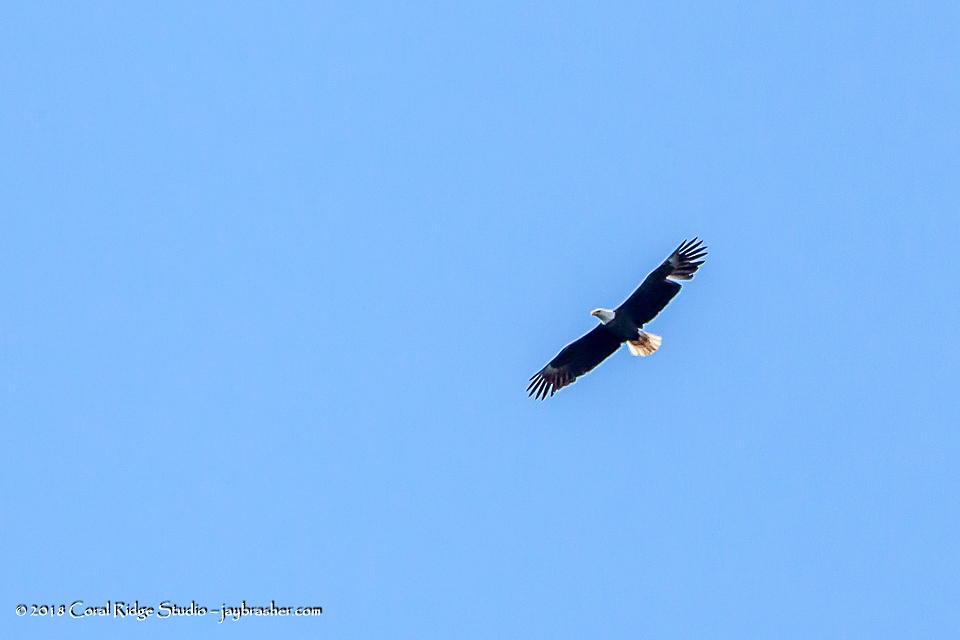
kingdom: Animalia
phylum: Chordata
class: Aves
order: Accipitriformes
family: Accipitridae
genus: Haliaeetus
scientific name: Haliaeetus leucocephalus
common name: Bald eagle
